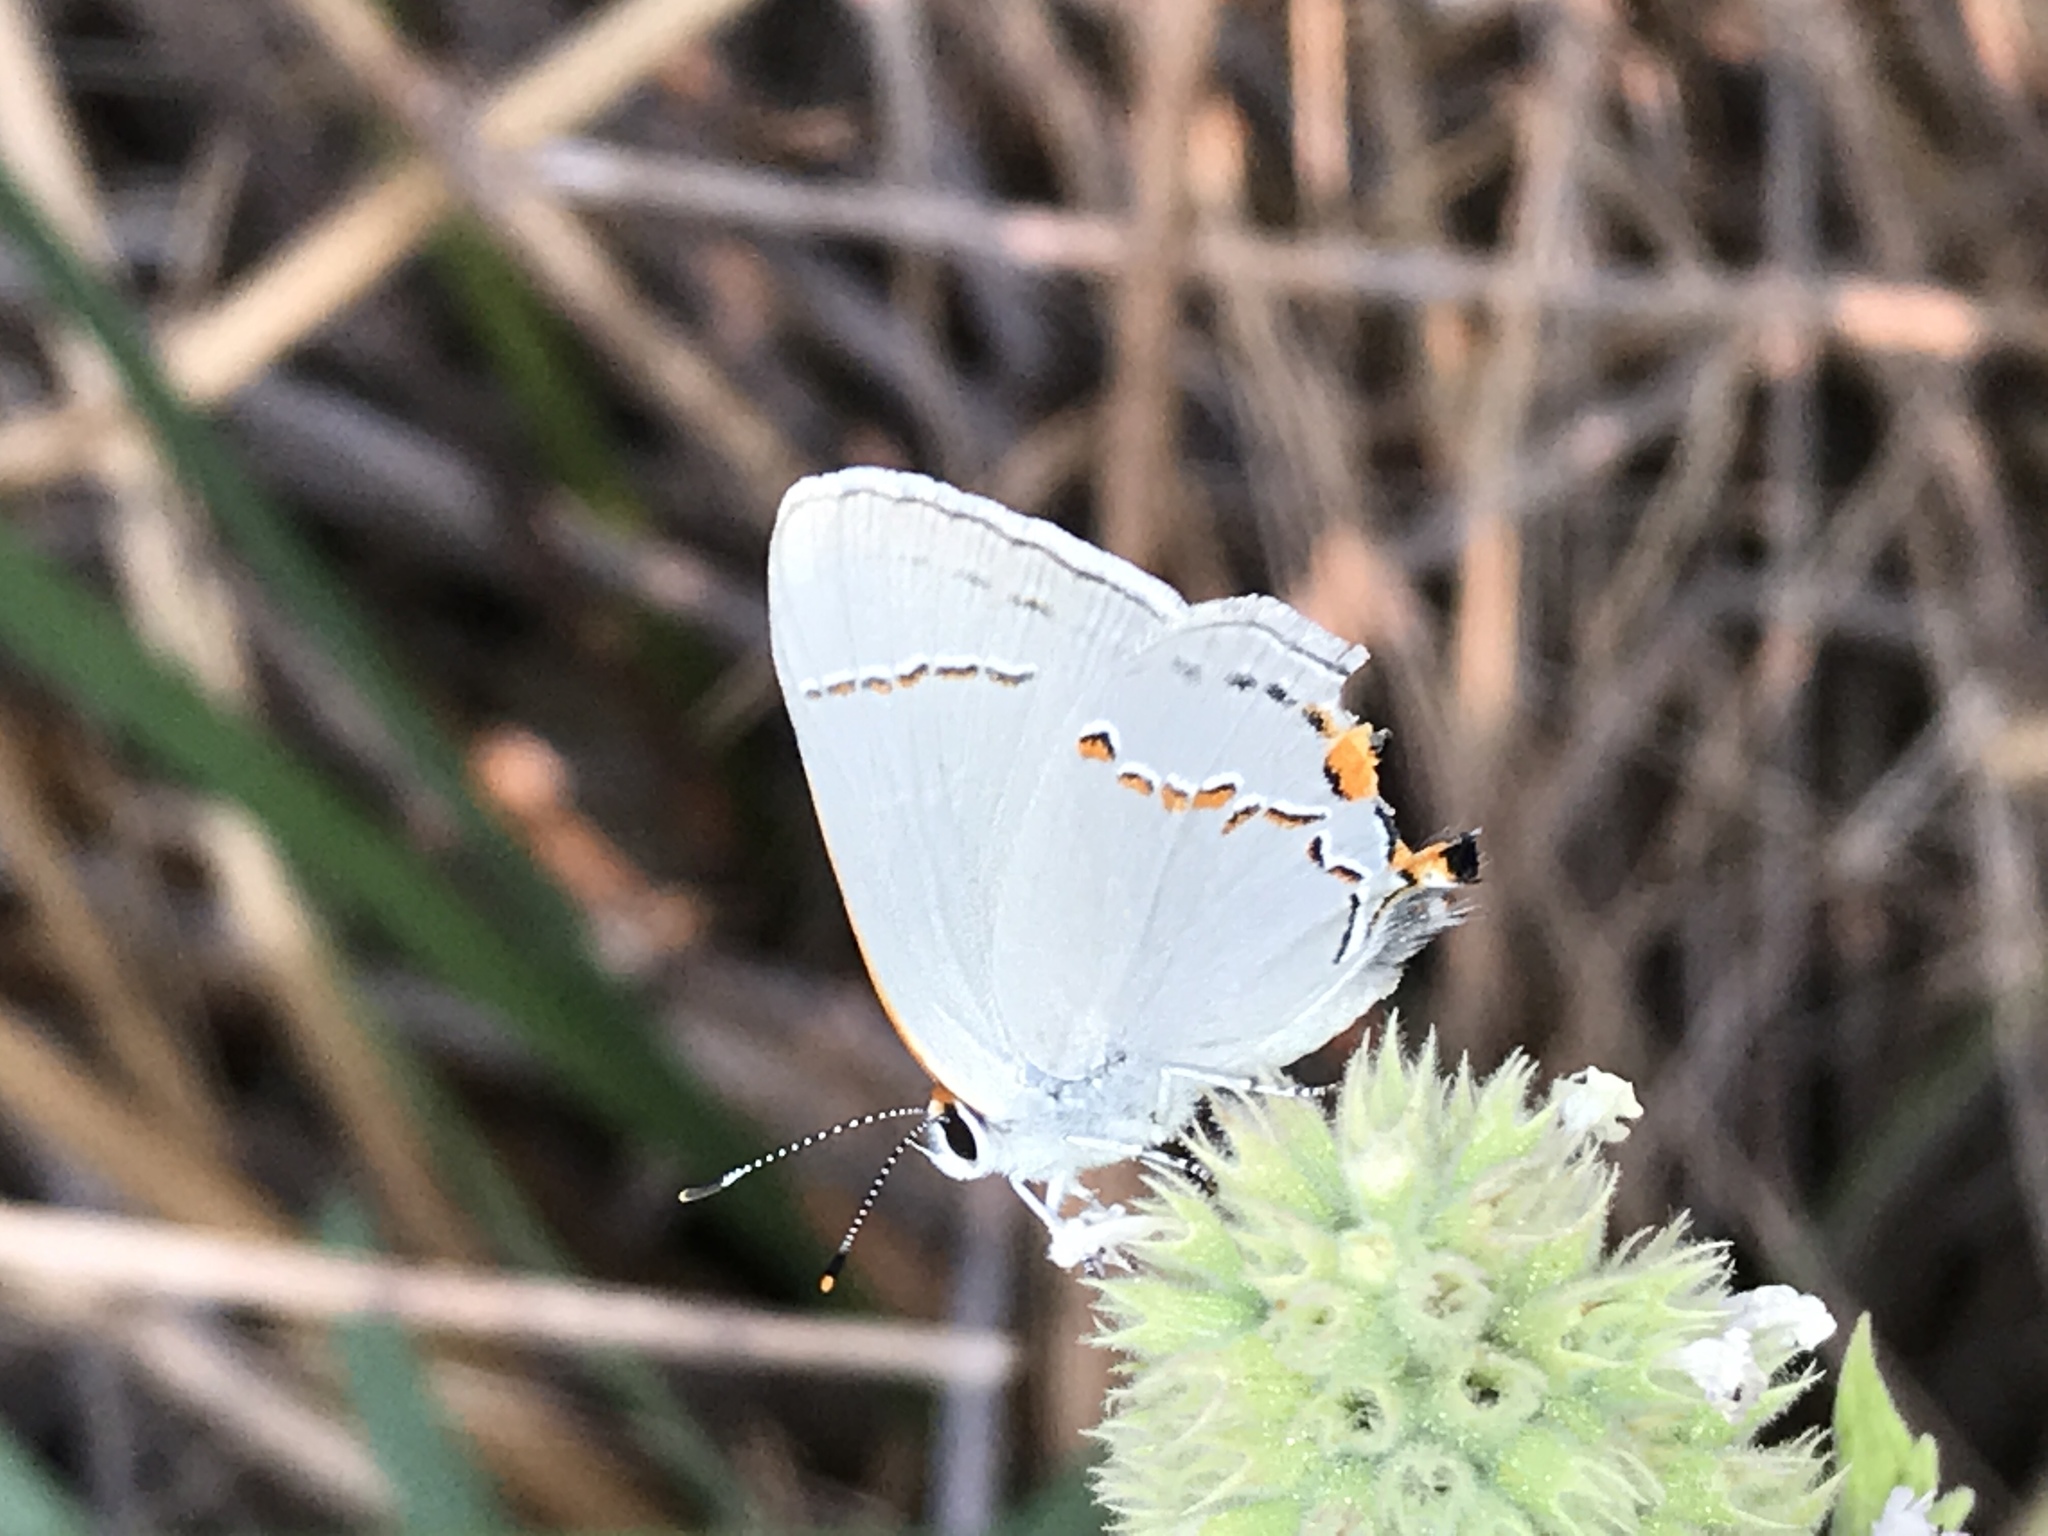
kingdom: Animalia
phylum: Arthropoda
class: Insecta
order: Lepidoptera
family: Lycaenidae
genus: Strymon
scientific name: Strymon melinus
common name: Gray hairstreak
